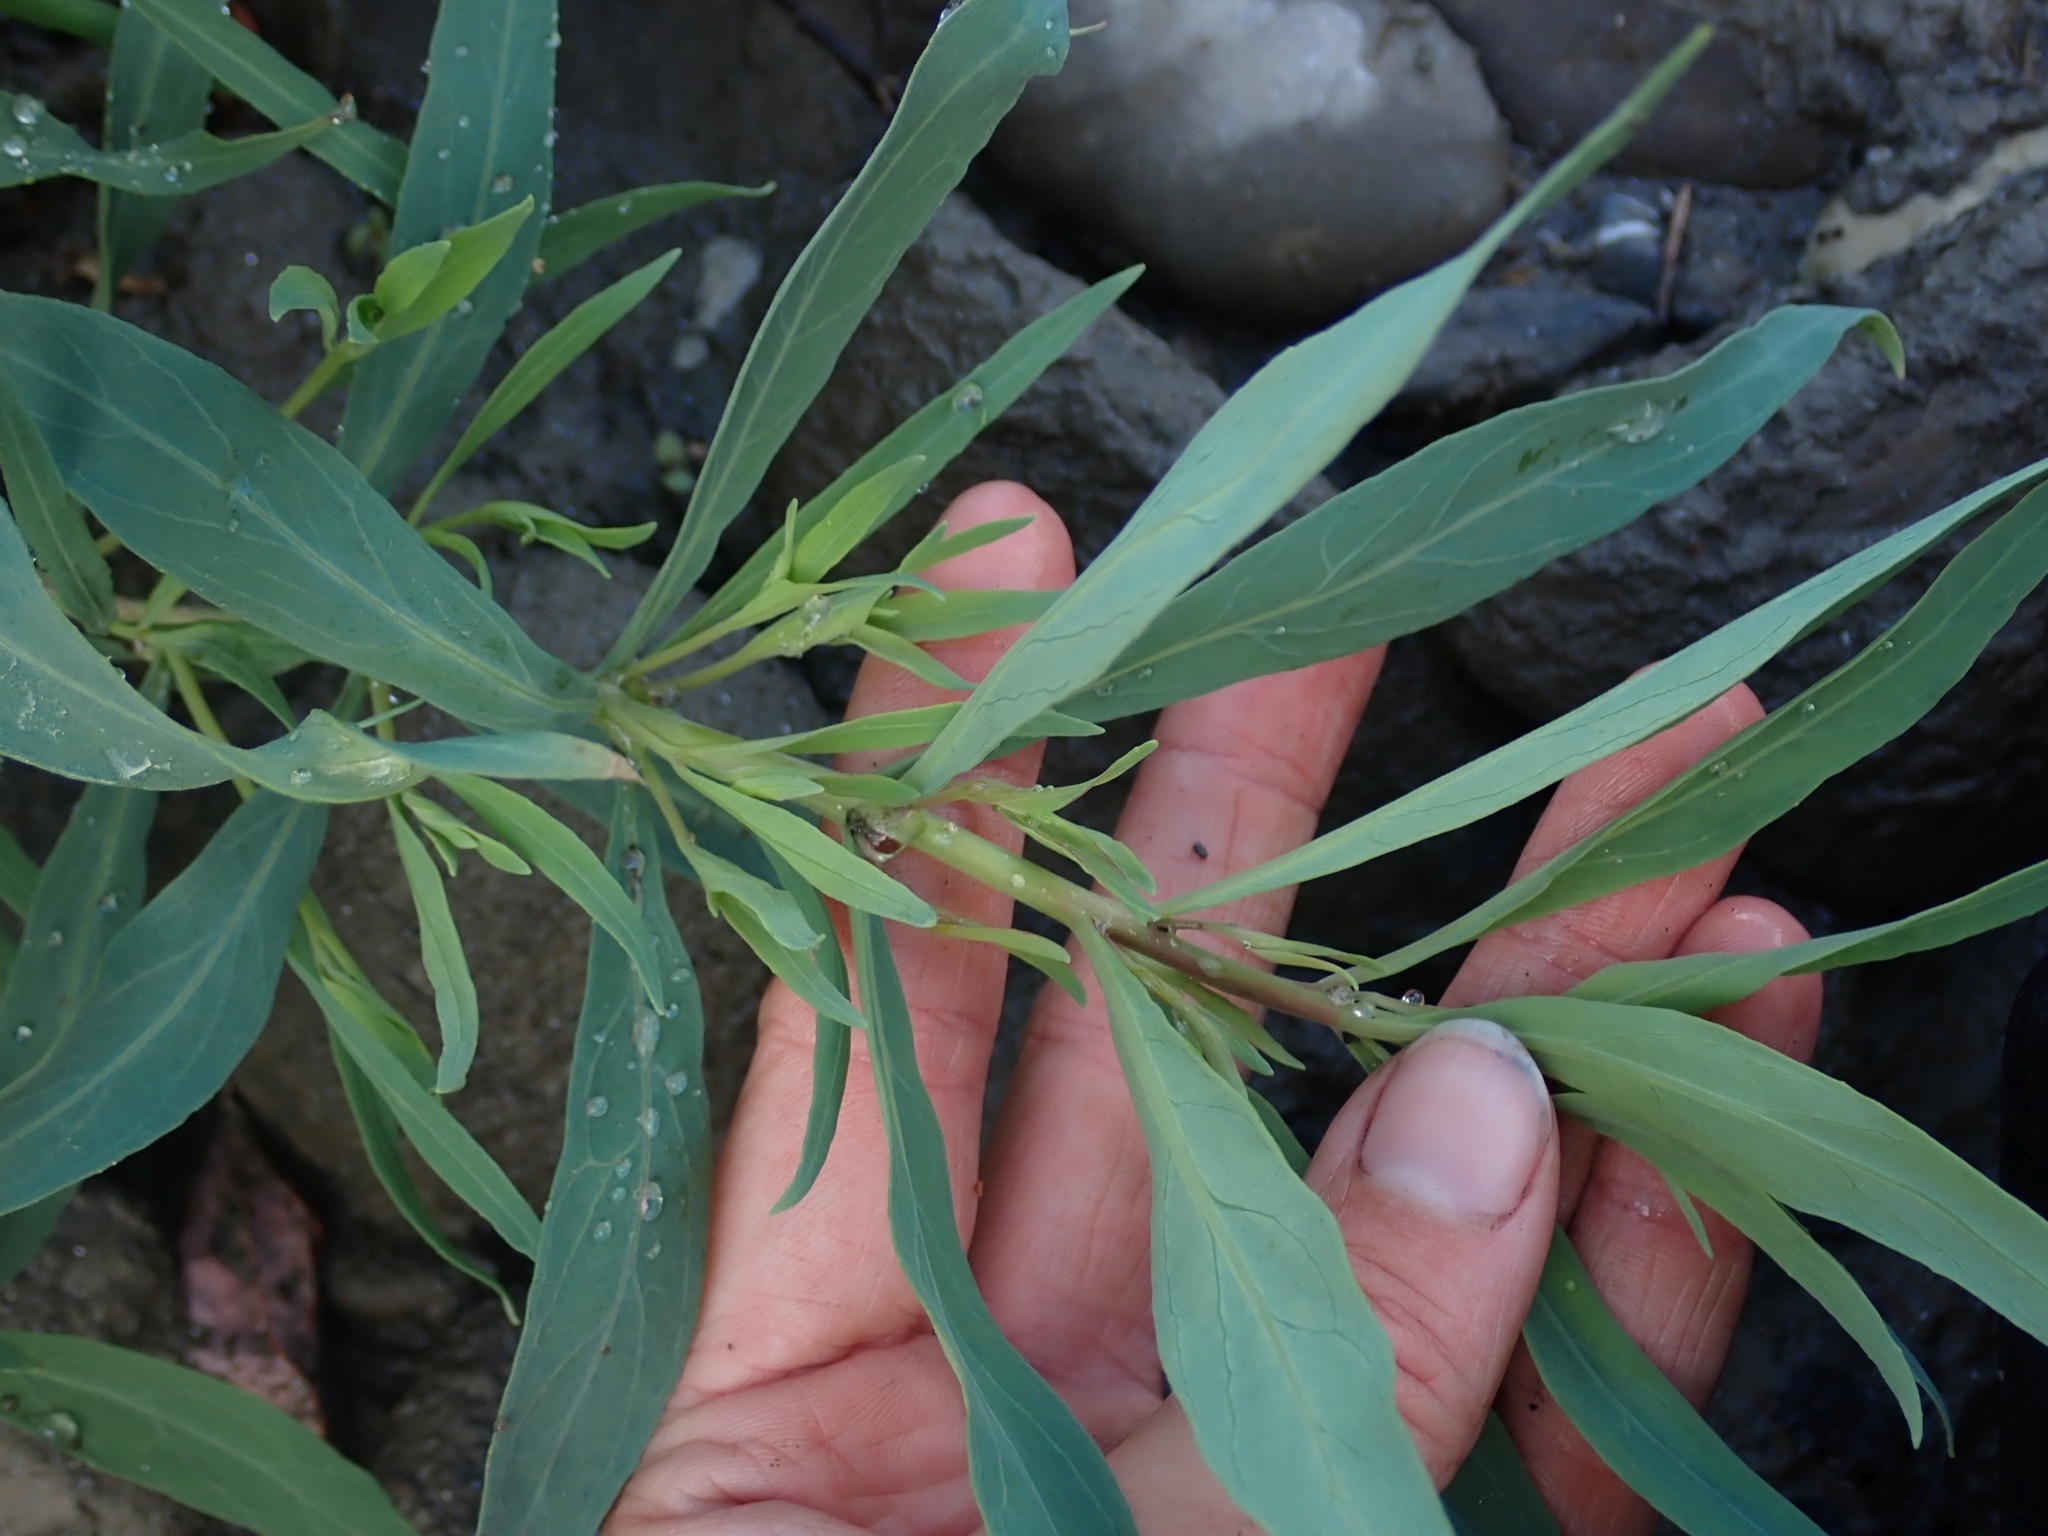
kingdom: Plantae
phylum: Tracheophyta
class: Magnoliopsida
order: Myrtales
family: Onagraceae
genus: Chamaenerion
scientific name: Chamaenerion latifolium
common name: Dwarf fireweed
